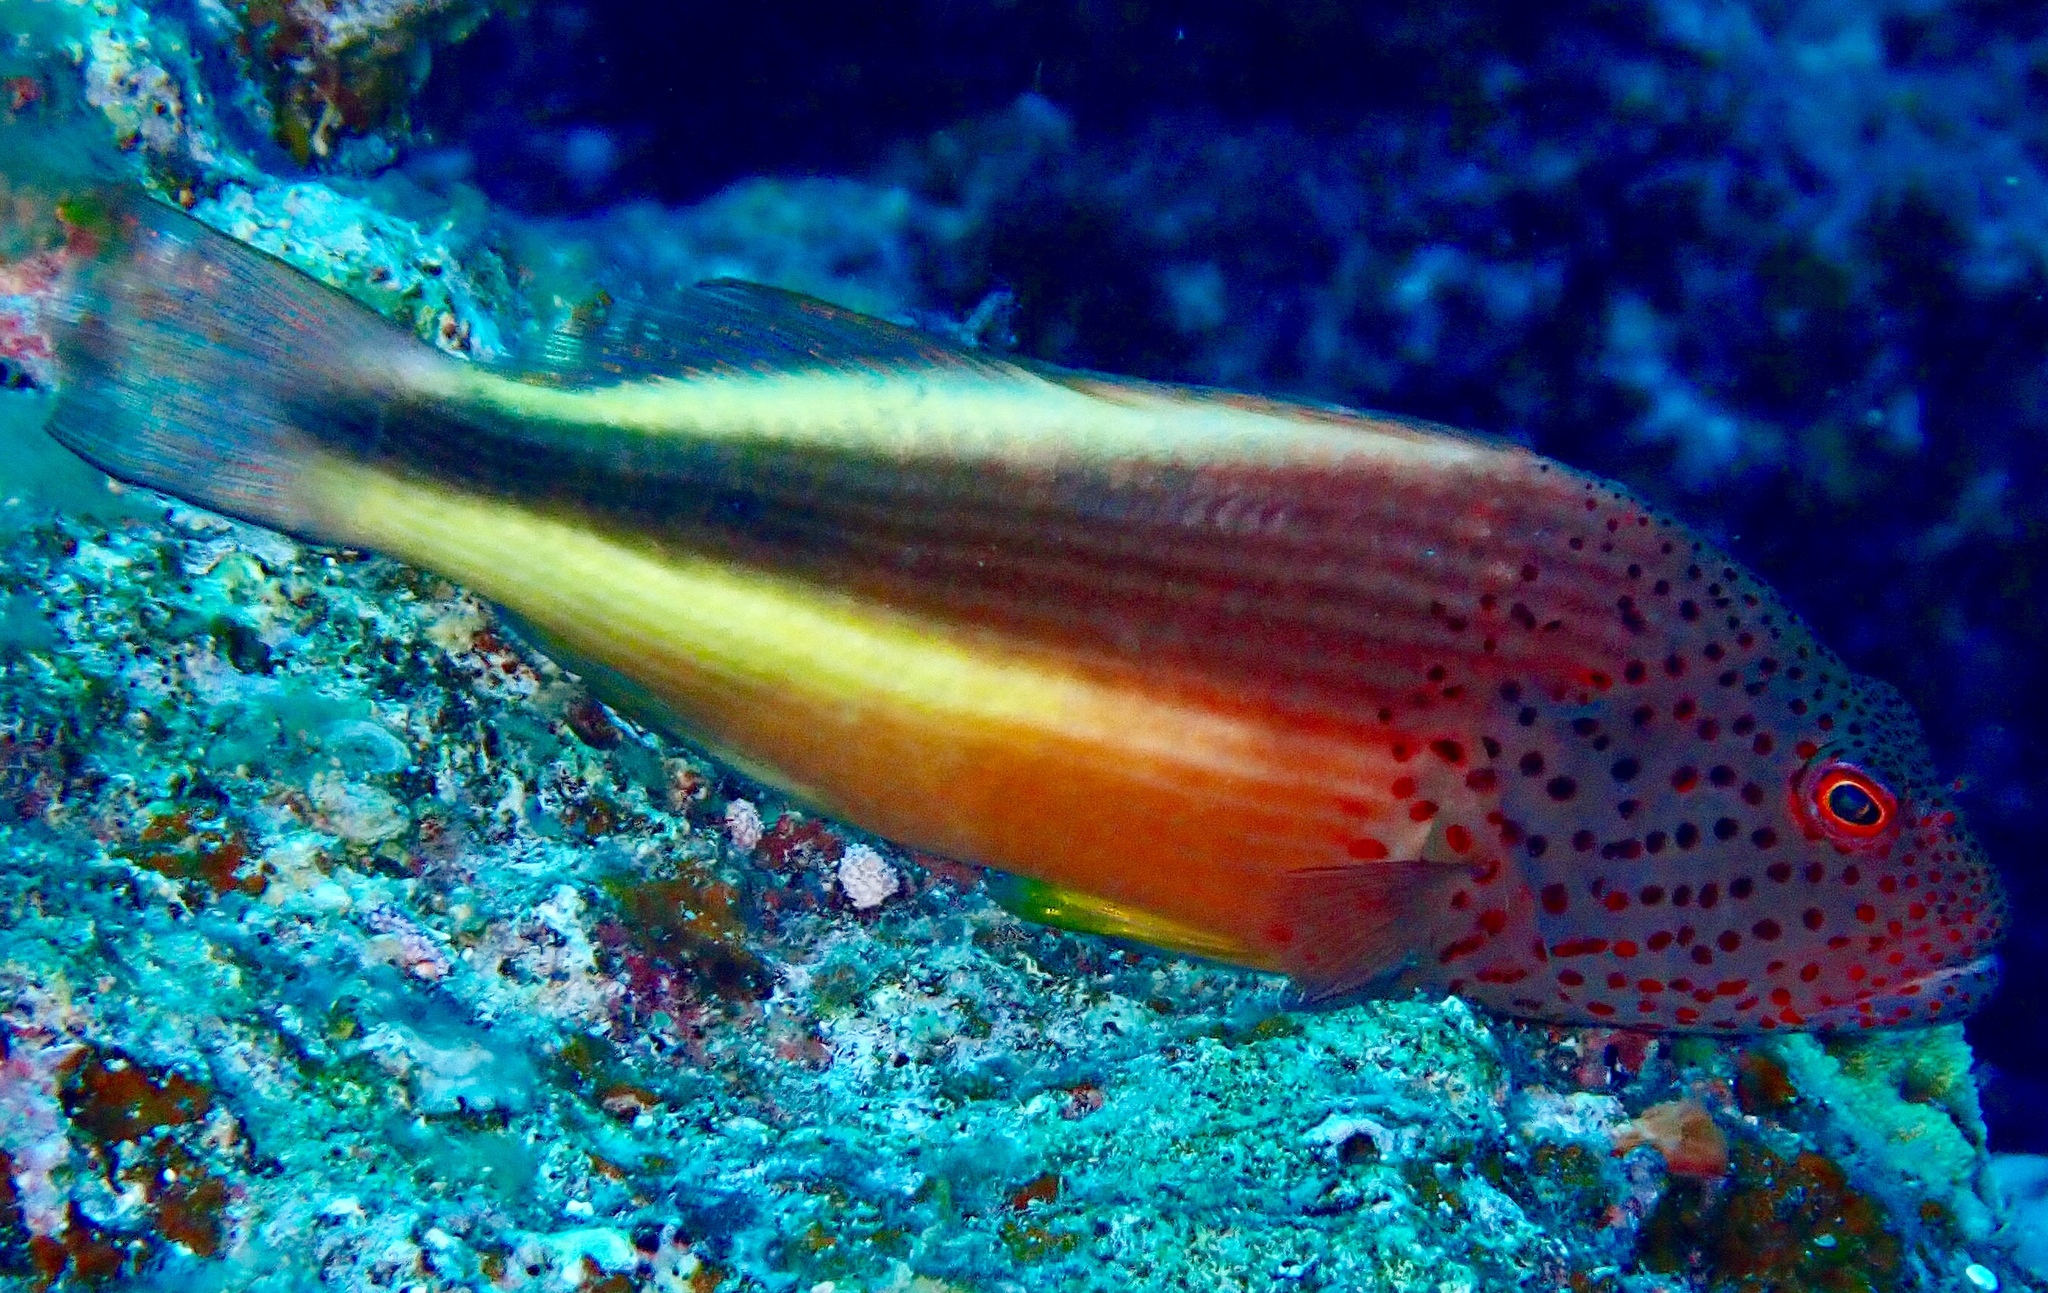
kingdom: Animalia
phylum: Chordata
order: Perciformes
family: Cirrhitidae
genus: Paracirrhites
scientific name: Paracirrhites forsteri
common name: Freckled hawkfish
